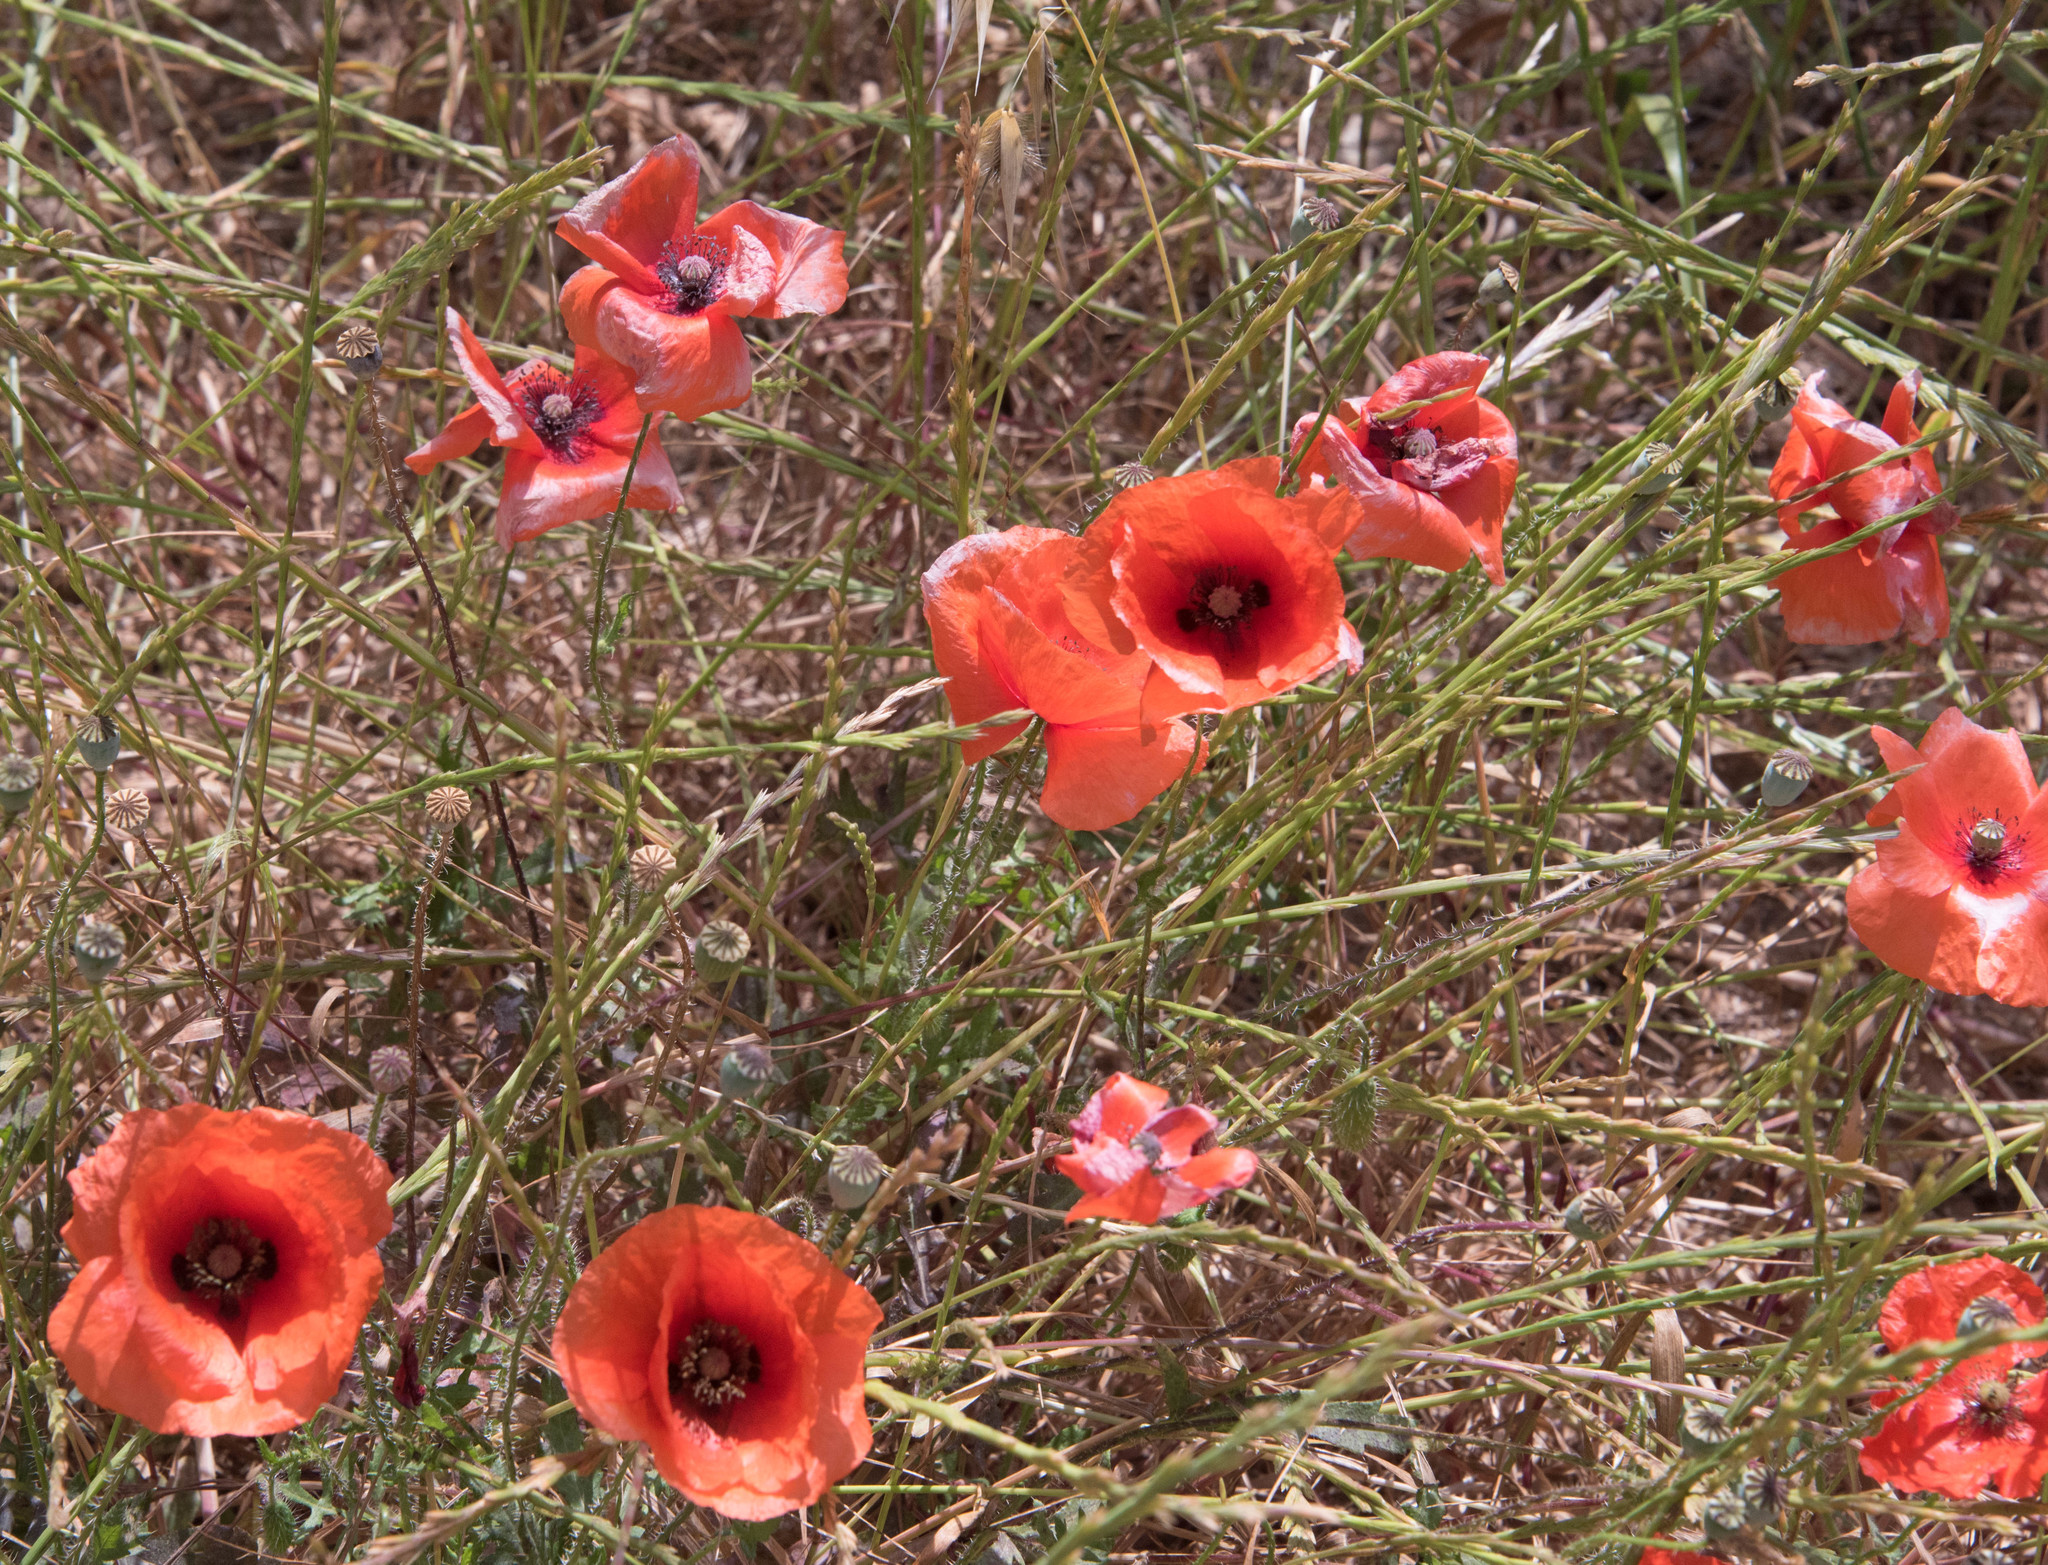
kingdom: Plantae
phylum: Tracheophyta
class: Magnoliopsida
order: Ranunculales
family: Papaveraceae
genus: Papaver
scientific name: Papaver rhoeas
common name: Corn poppy
